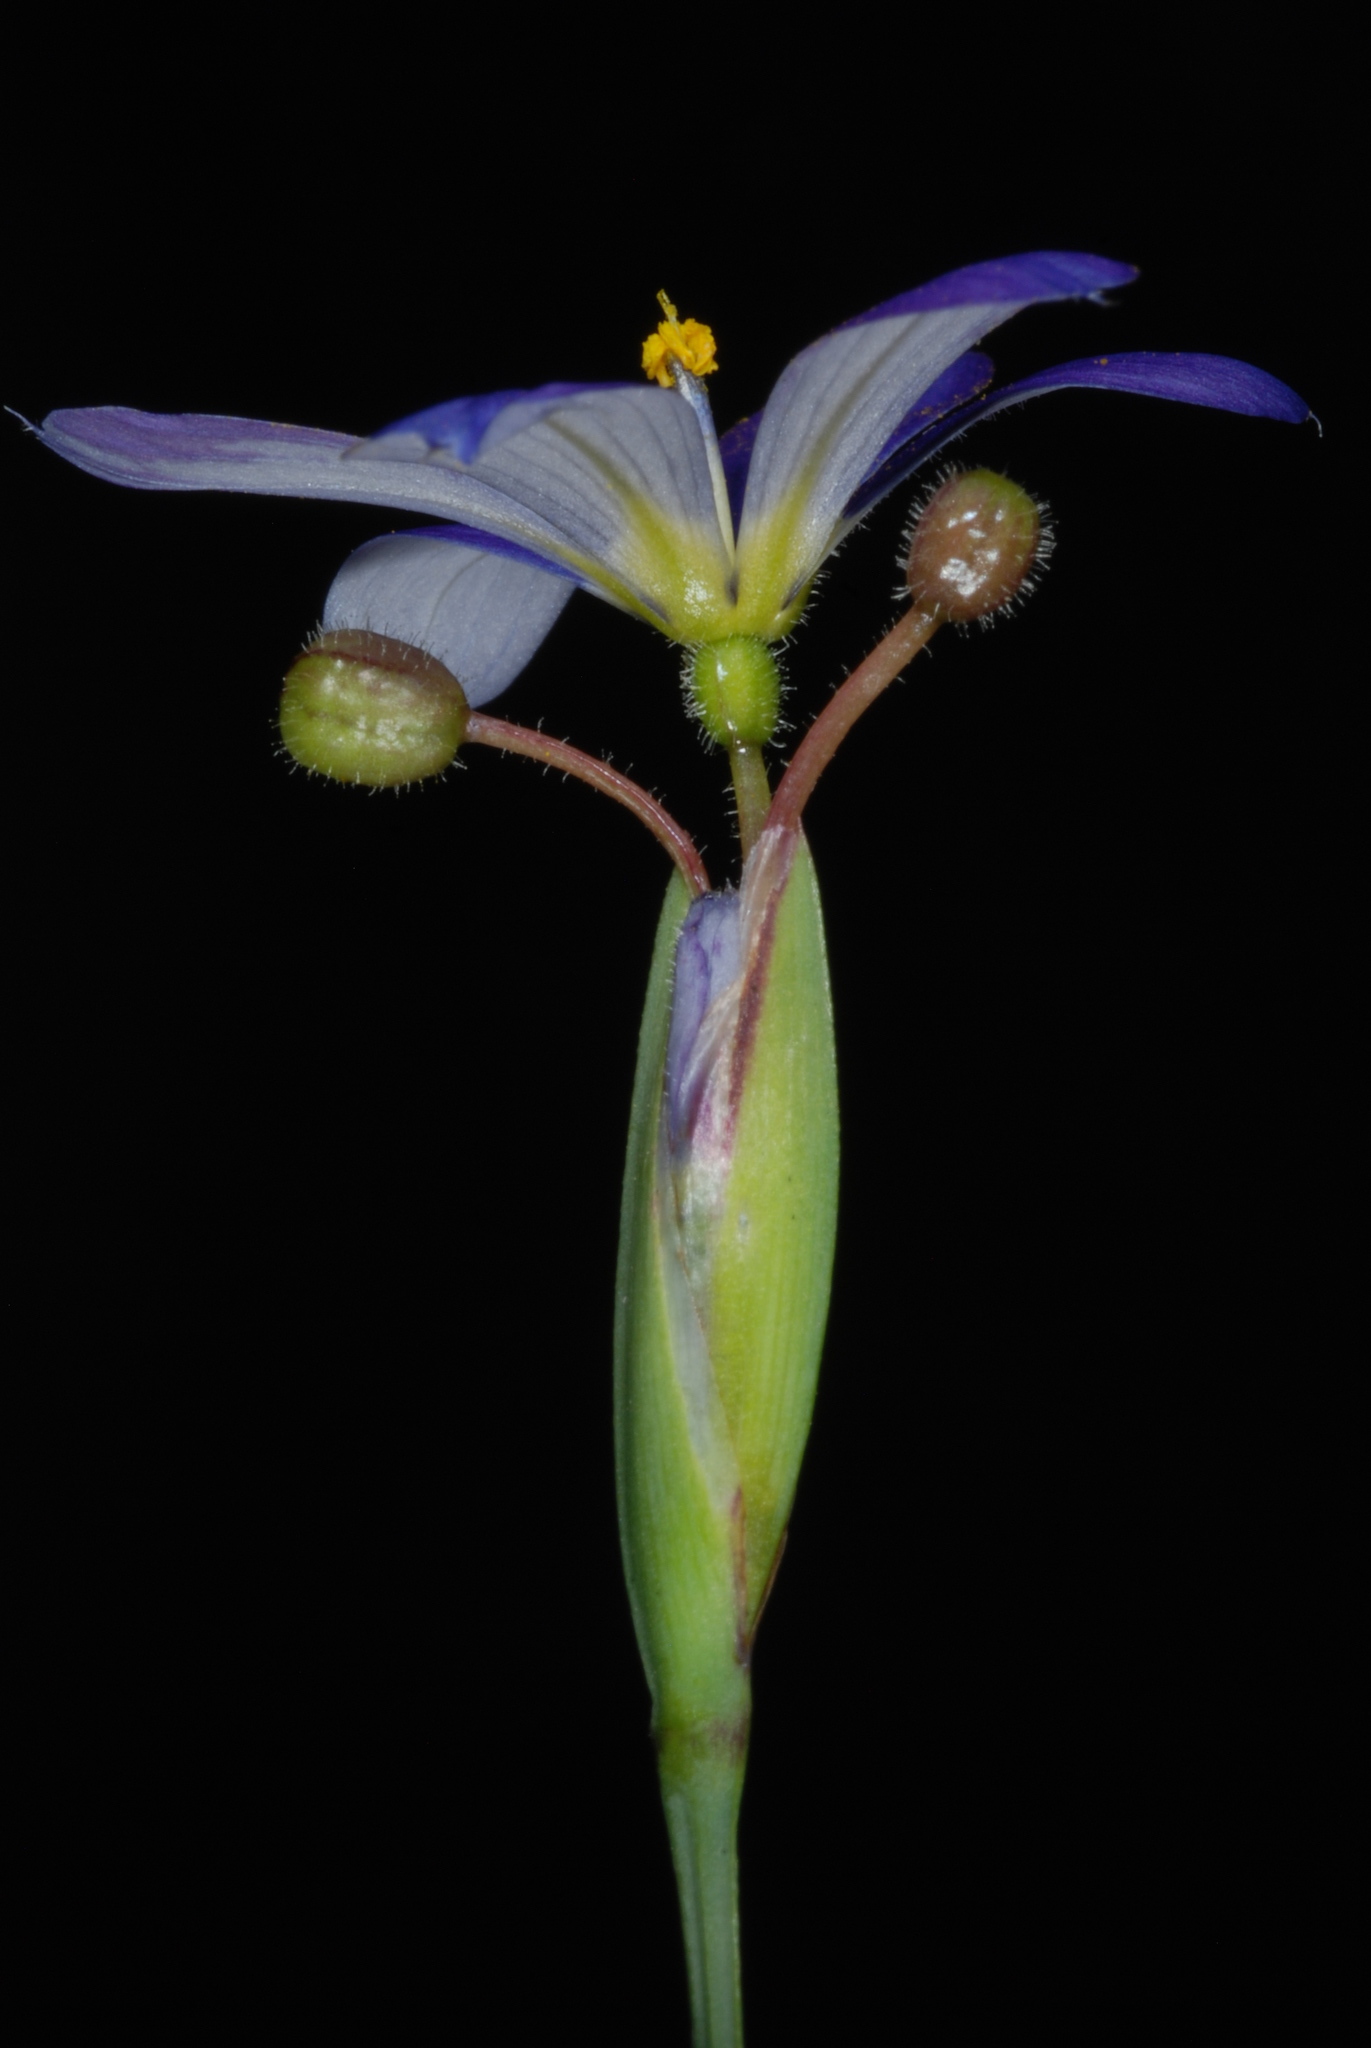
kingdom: Plantae
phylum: Tracheophyta
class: Liliopsida
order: Asparagales
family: Iridaceae
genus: Sisyrinchium
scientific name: Sisyrinchium
